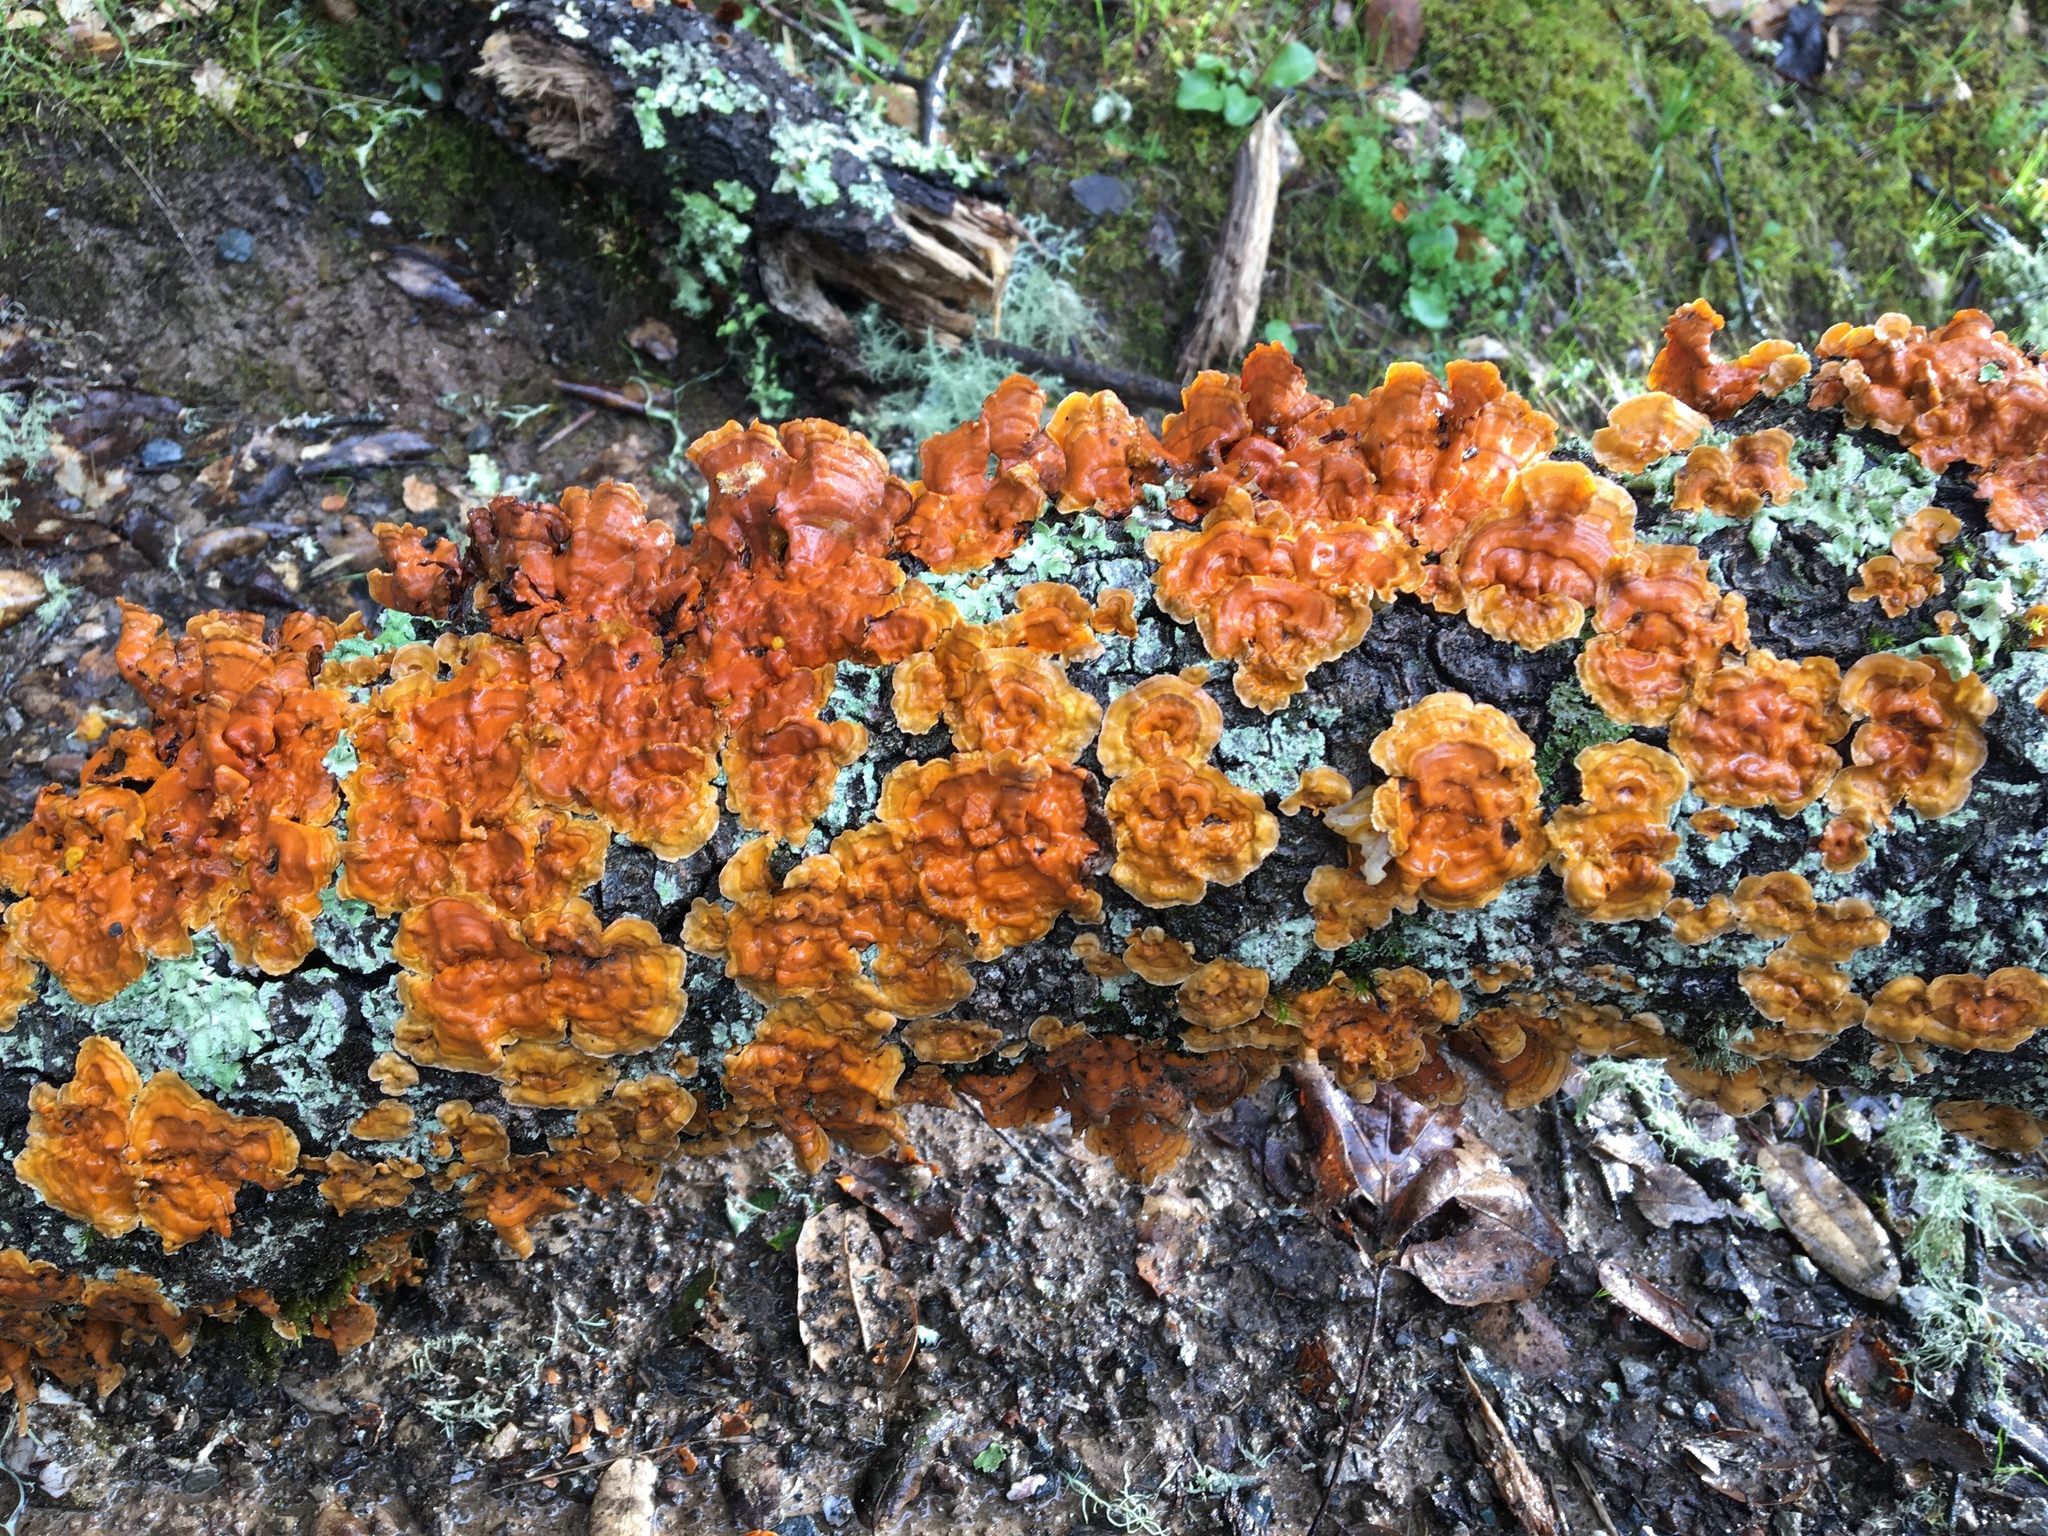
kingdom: Fungi
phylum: Basidiomycota
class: Agaricomycetes
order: Russulales
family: Stereaceae
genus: Stereum
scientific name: Stereum hirsutum
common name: Hairy curtain crust
